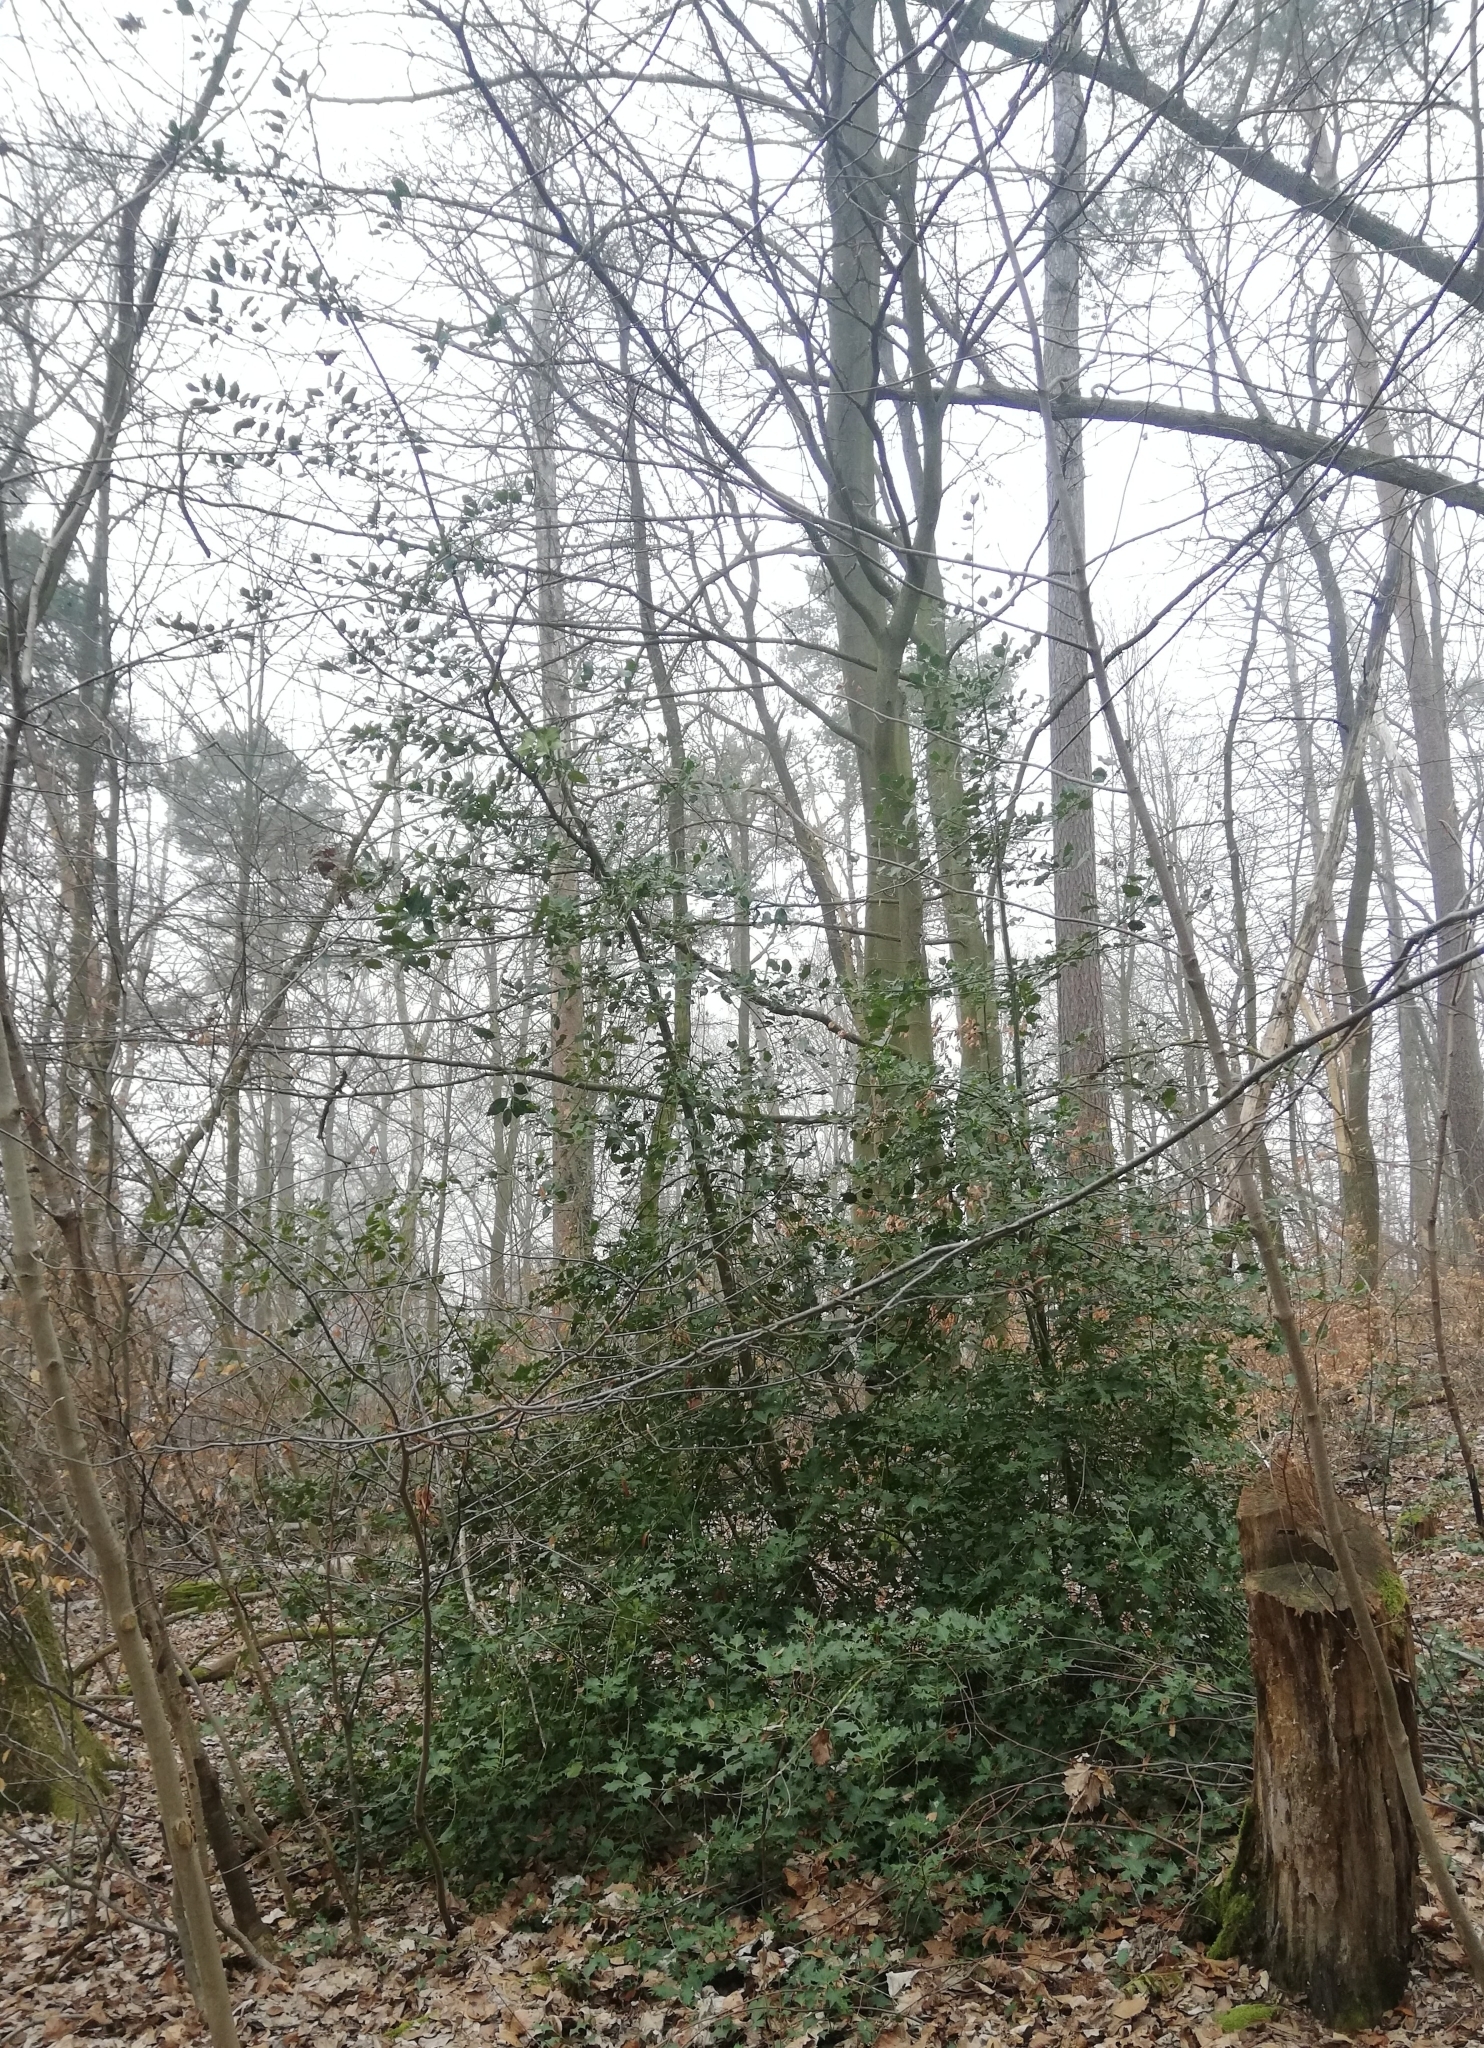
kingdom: Plantae
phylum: Tracheophyta
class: Magnoliopsida
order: Aquifoliales
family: Aquifoliaceae
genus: Ilex
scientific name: Ilex aquifolium
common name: English holly
